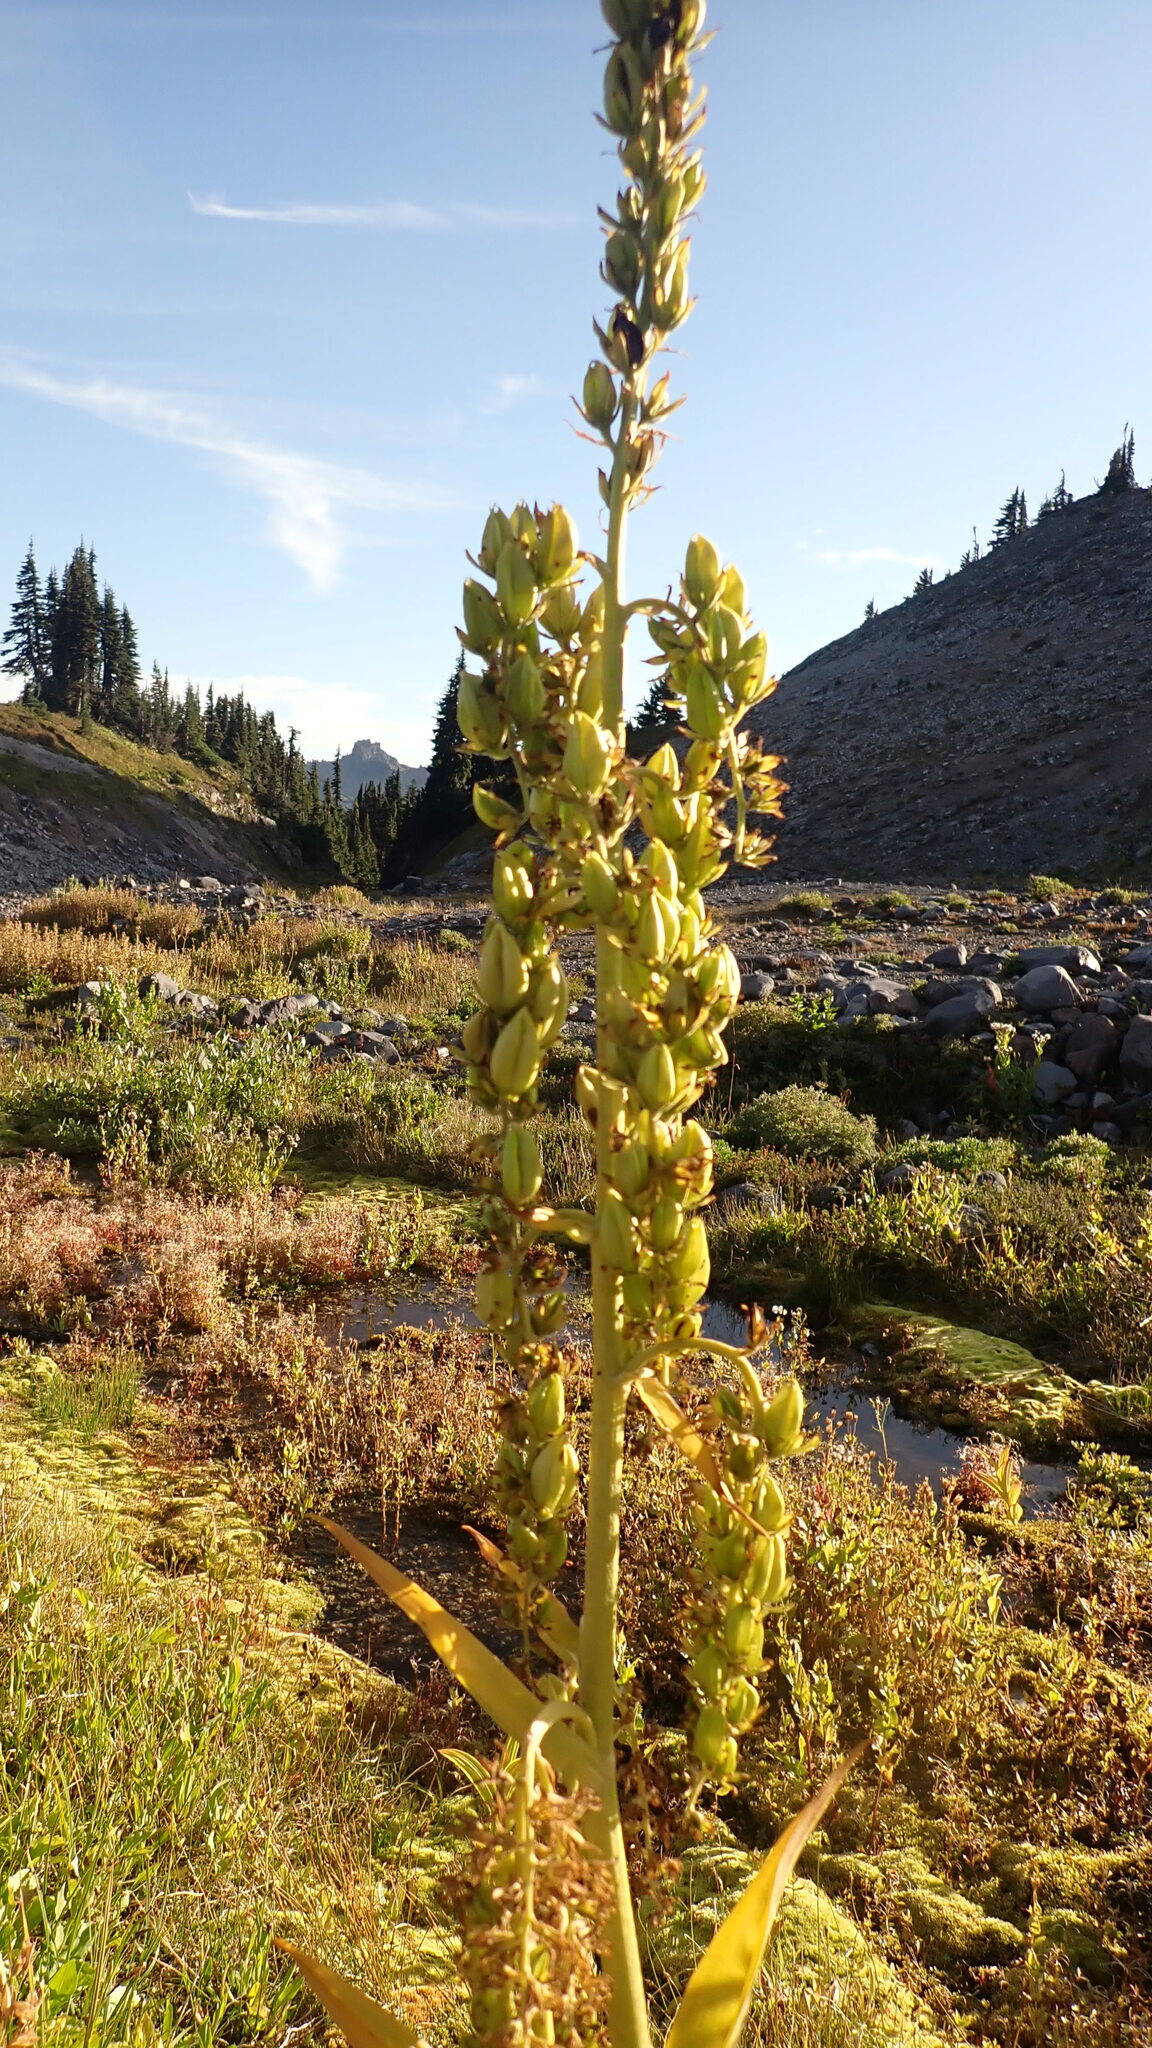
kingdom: Plantae
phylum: Tracheophyta
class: Liliopsida
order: Liliales
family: Melanthiaceae
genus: Veratrum
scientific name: Veratrum viride
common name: American false hellebore
